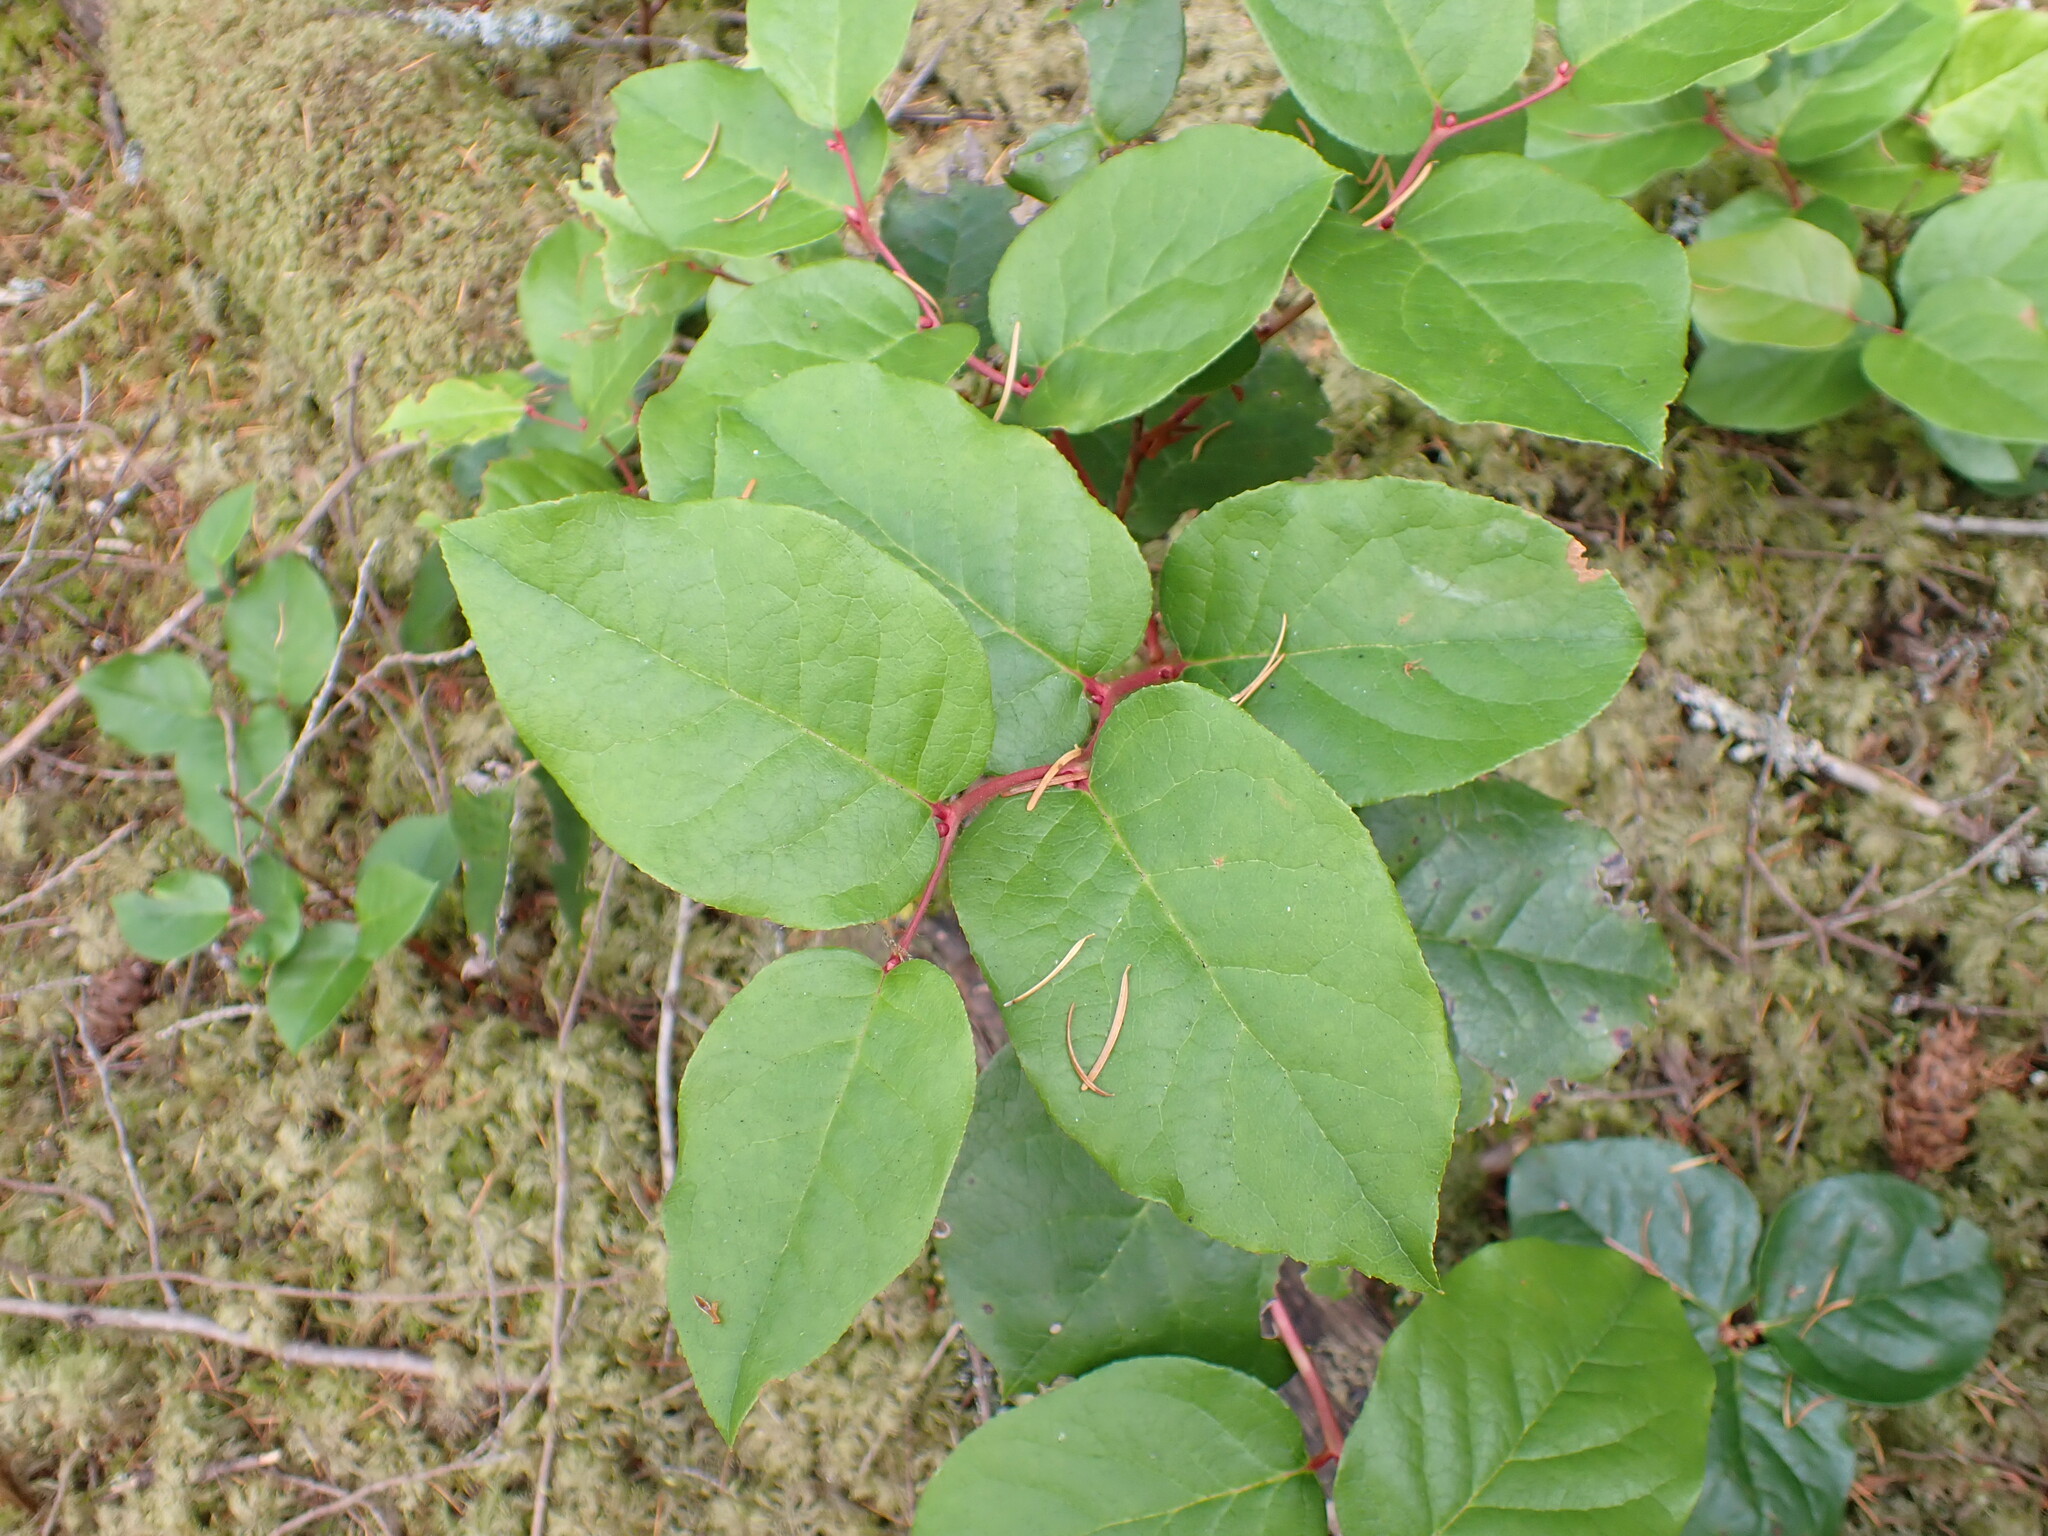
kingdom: Plantae
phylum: Tracheophyta
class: Magnoliopsida
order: Ericales
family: Ericaceae
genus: Gaultheria
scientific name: Gaultheria shallon
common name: Shallon
